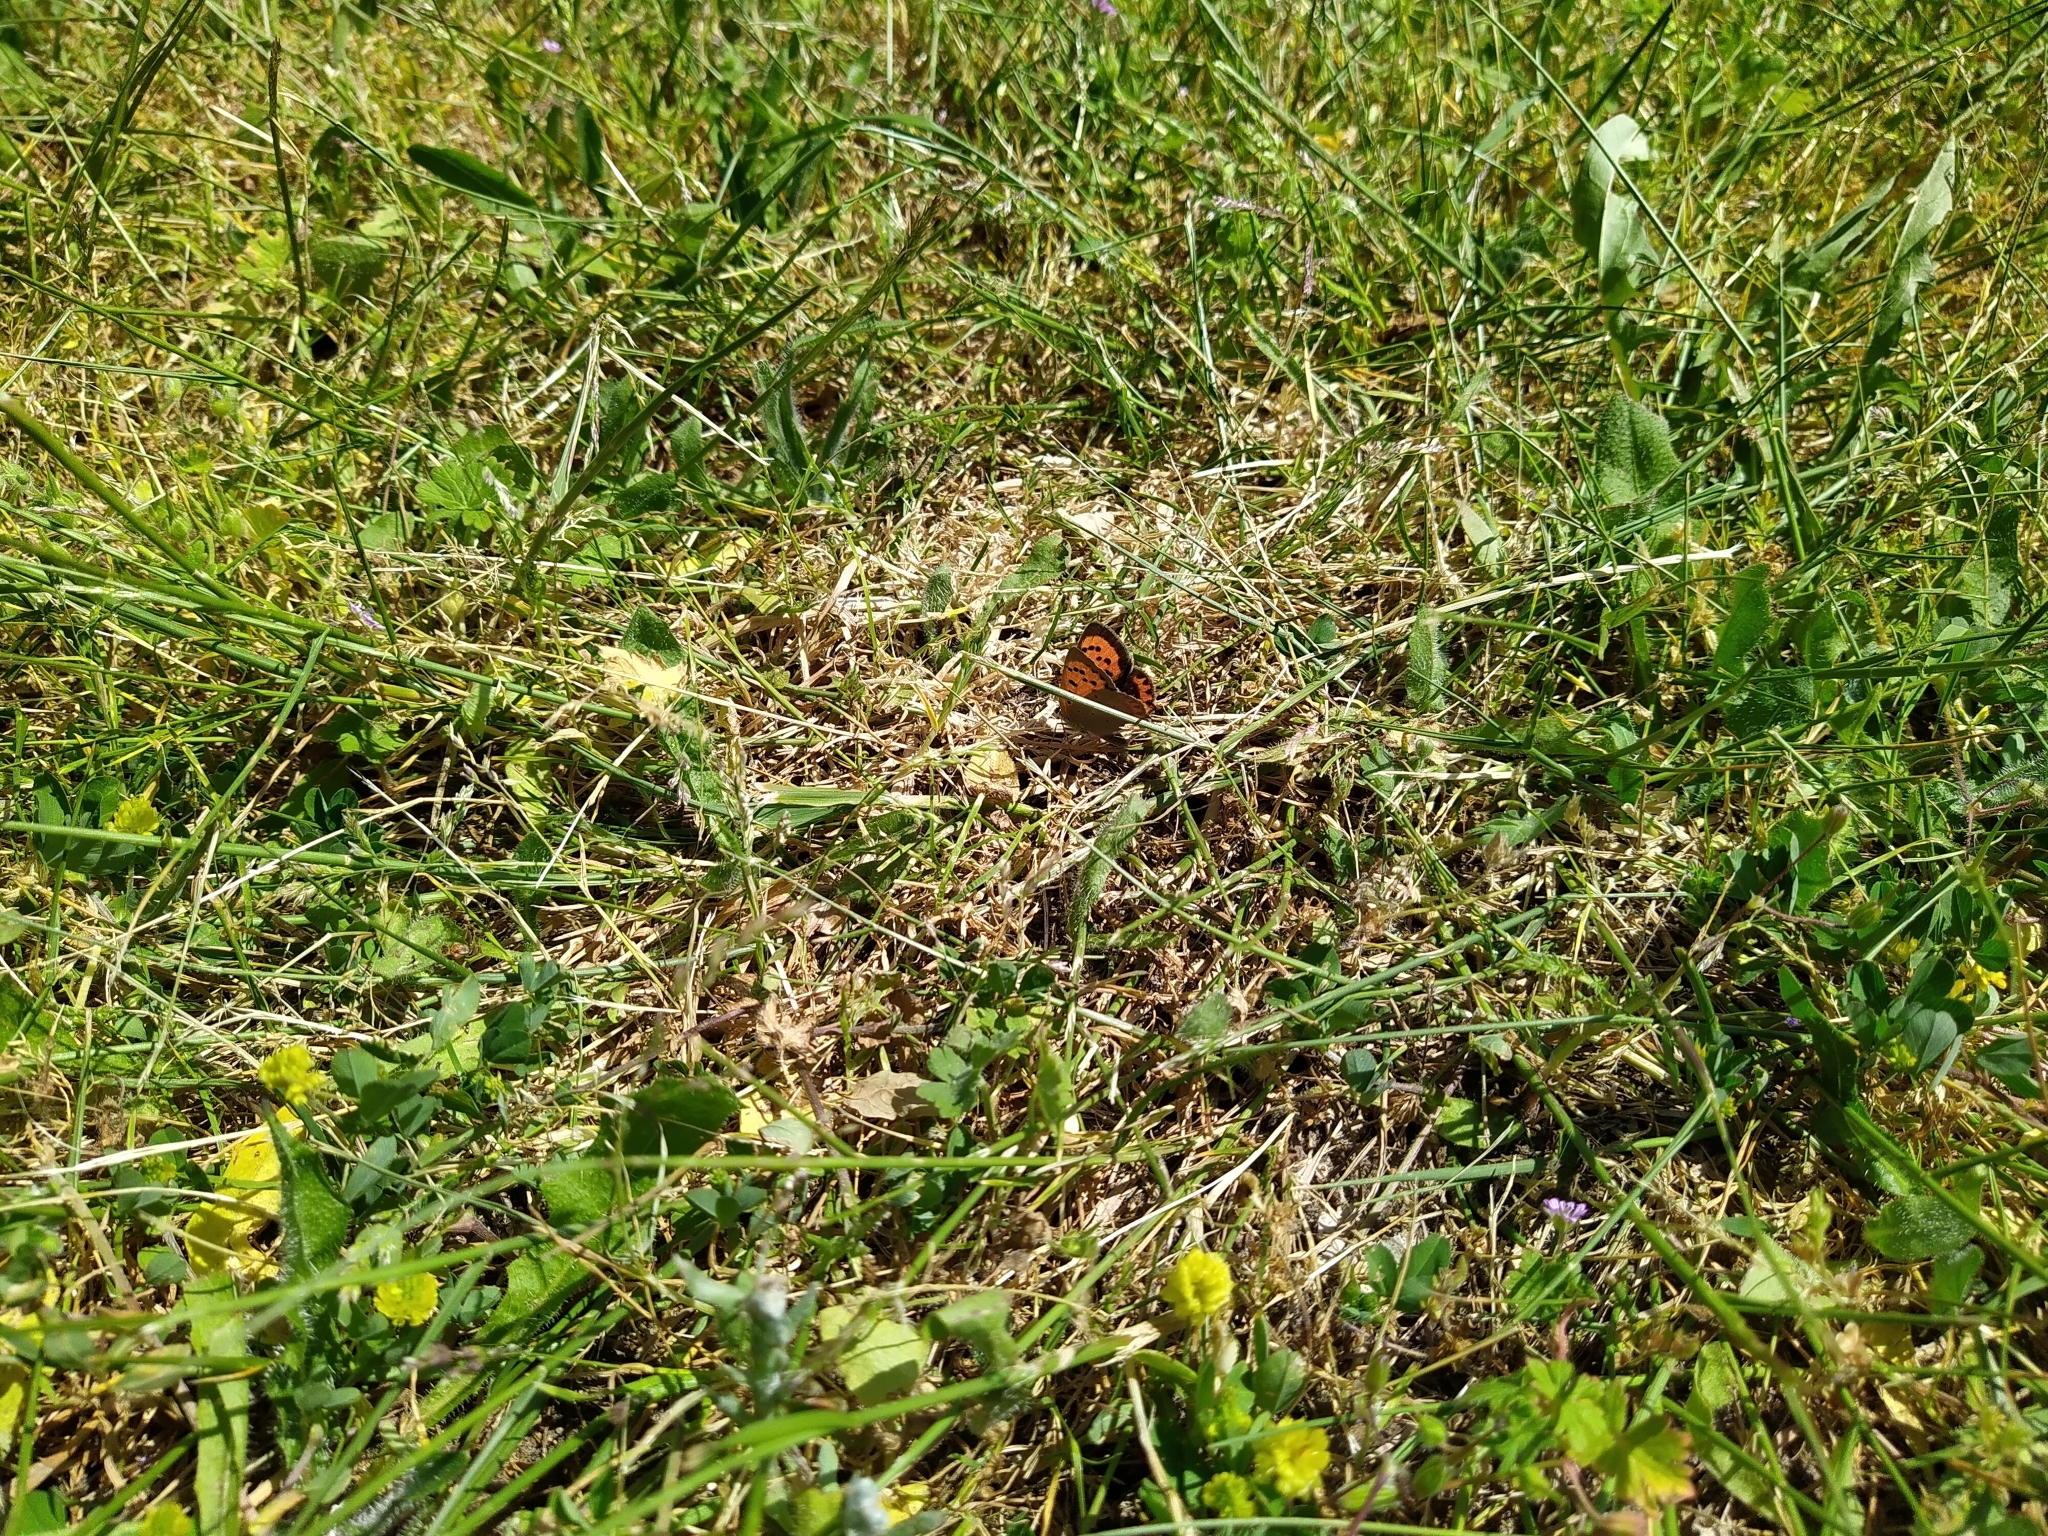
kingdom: Animalia
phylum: Arthropoda
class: Insecta
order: Lepidoptera
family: Lycaenidae
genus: Lycaena
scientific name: Lycaena phlaeas
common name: Small copper
